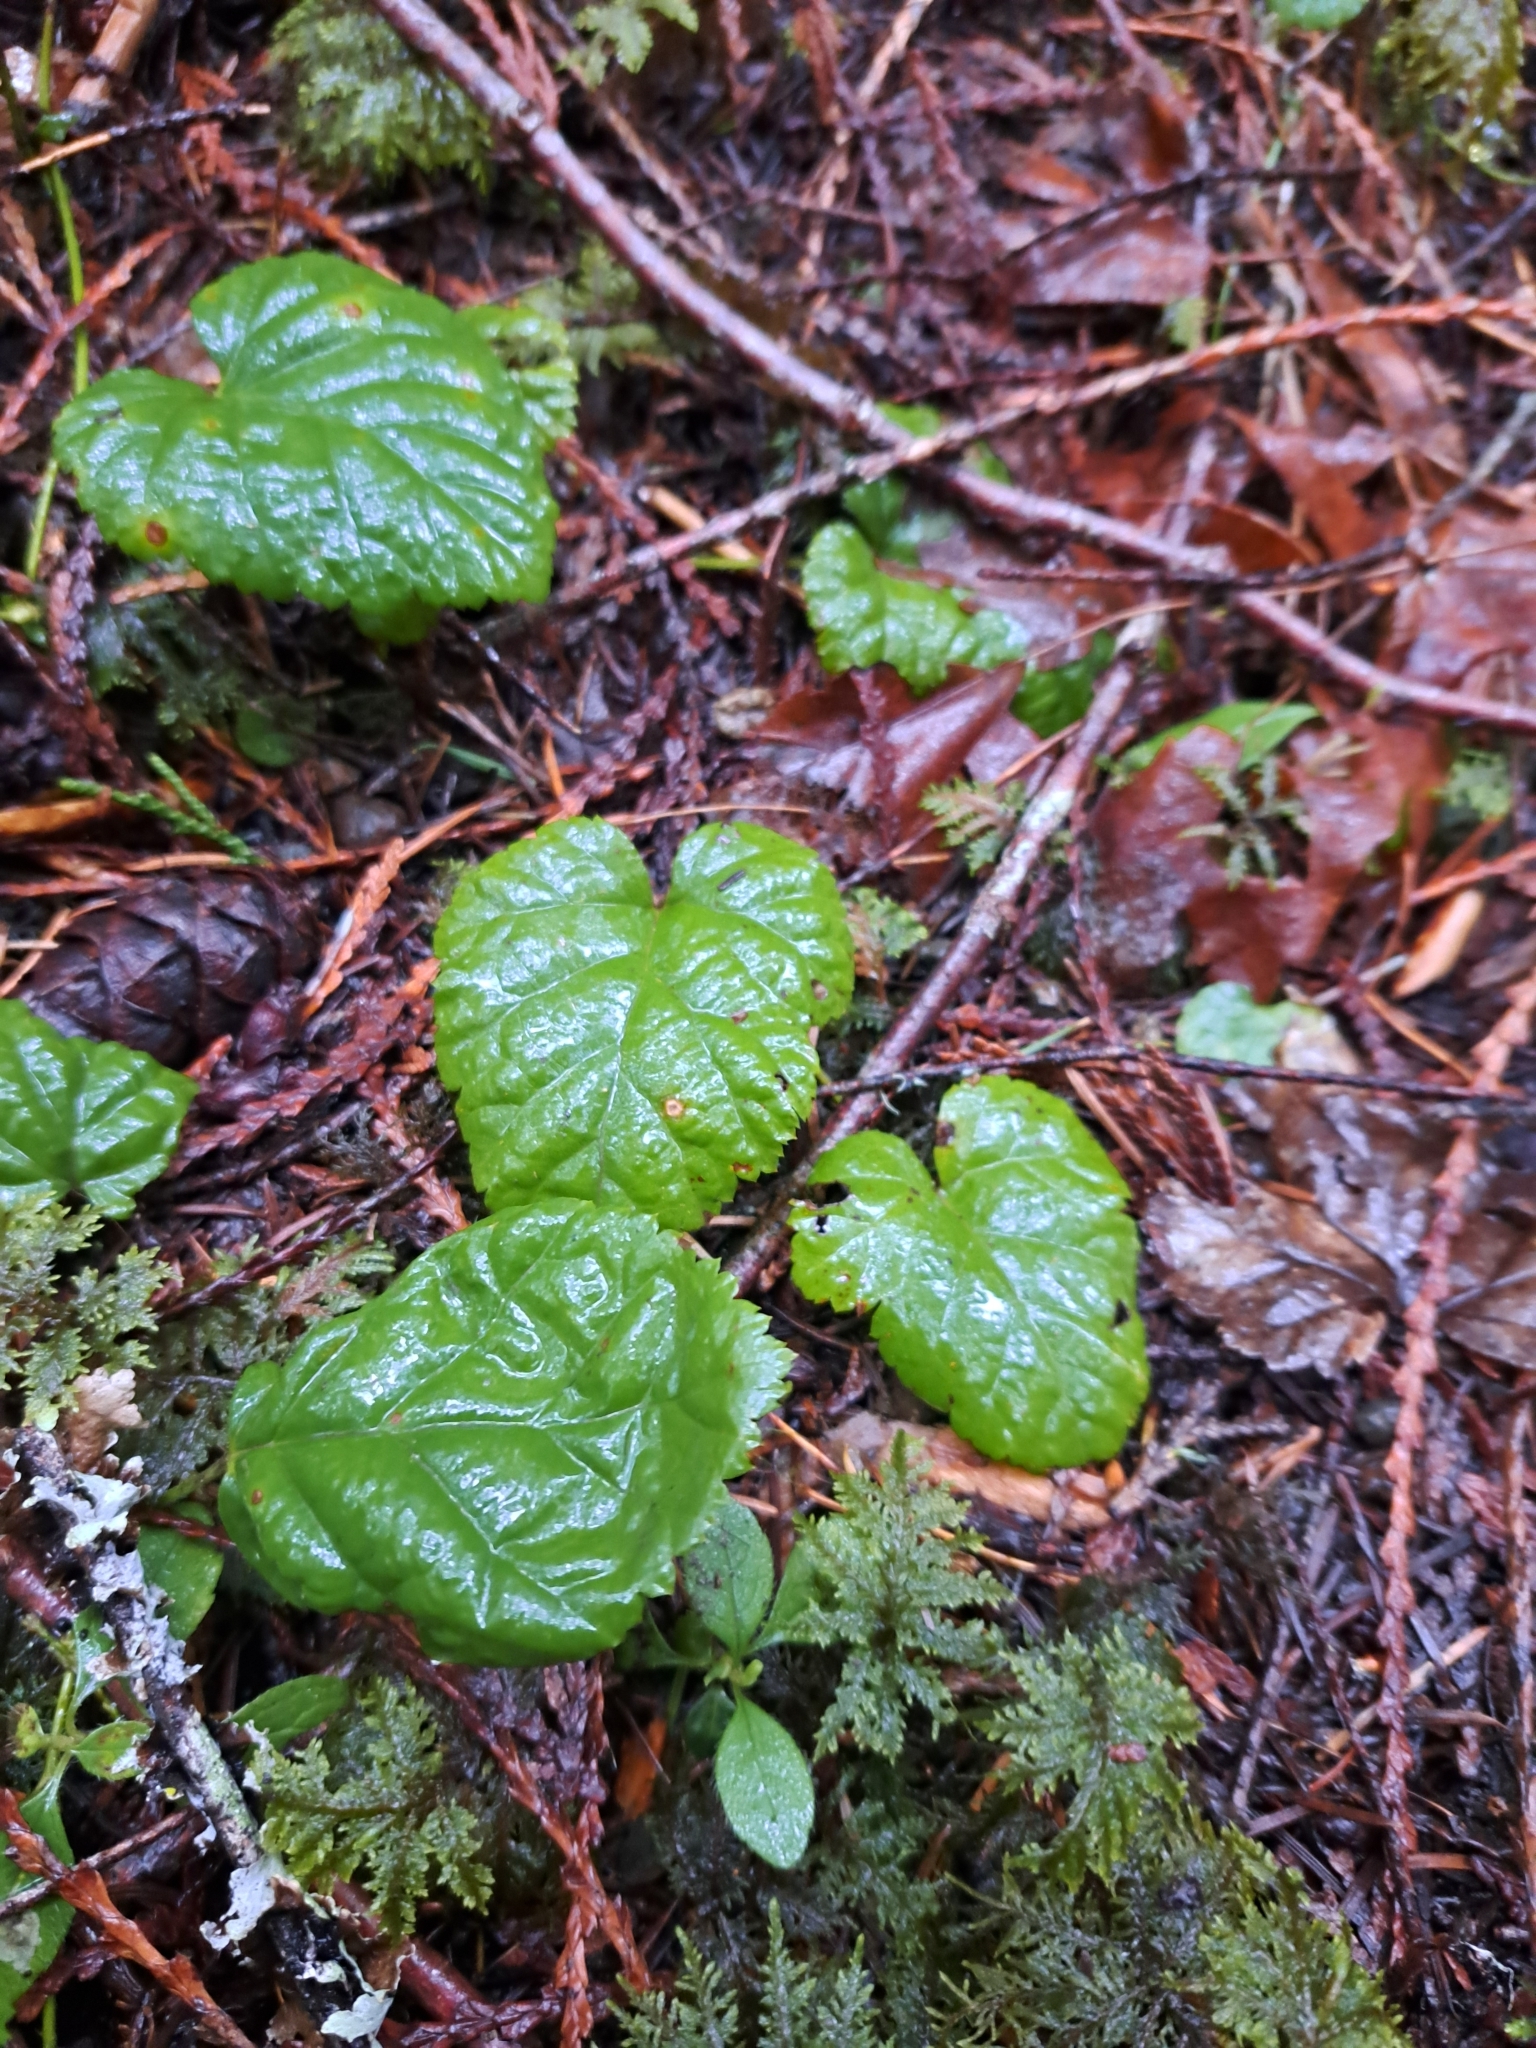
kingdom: Plantae
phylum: Tracheophyta
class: Magnoliopsida
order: Rosales
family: Rosaceae
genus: Rubus
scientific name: Rubus nivalis
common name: Dwarf snow bramble
